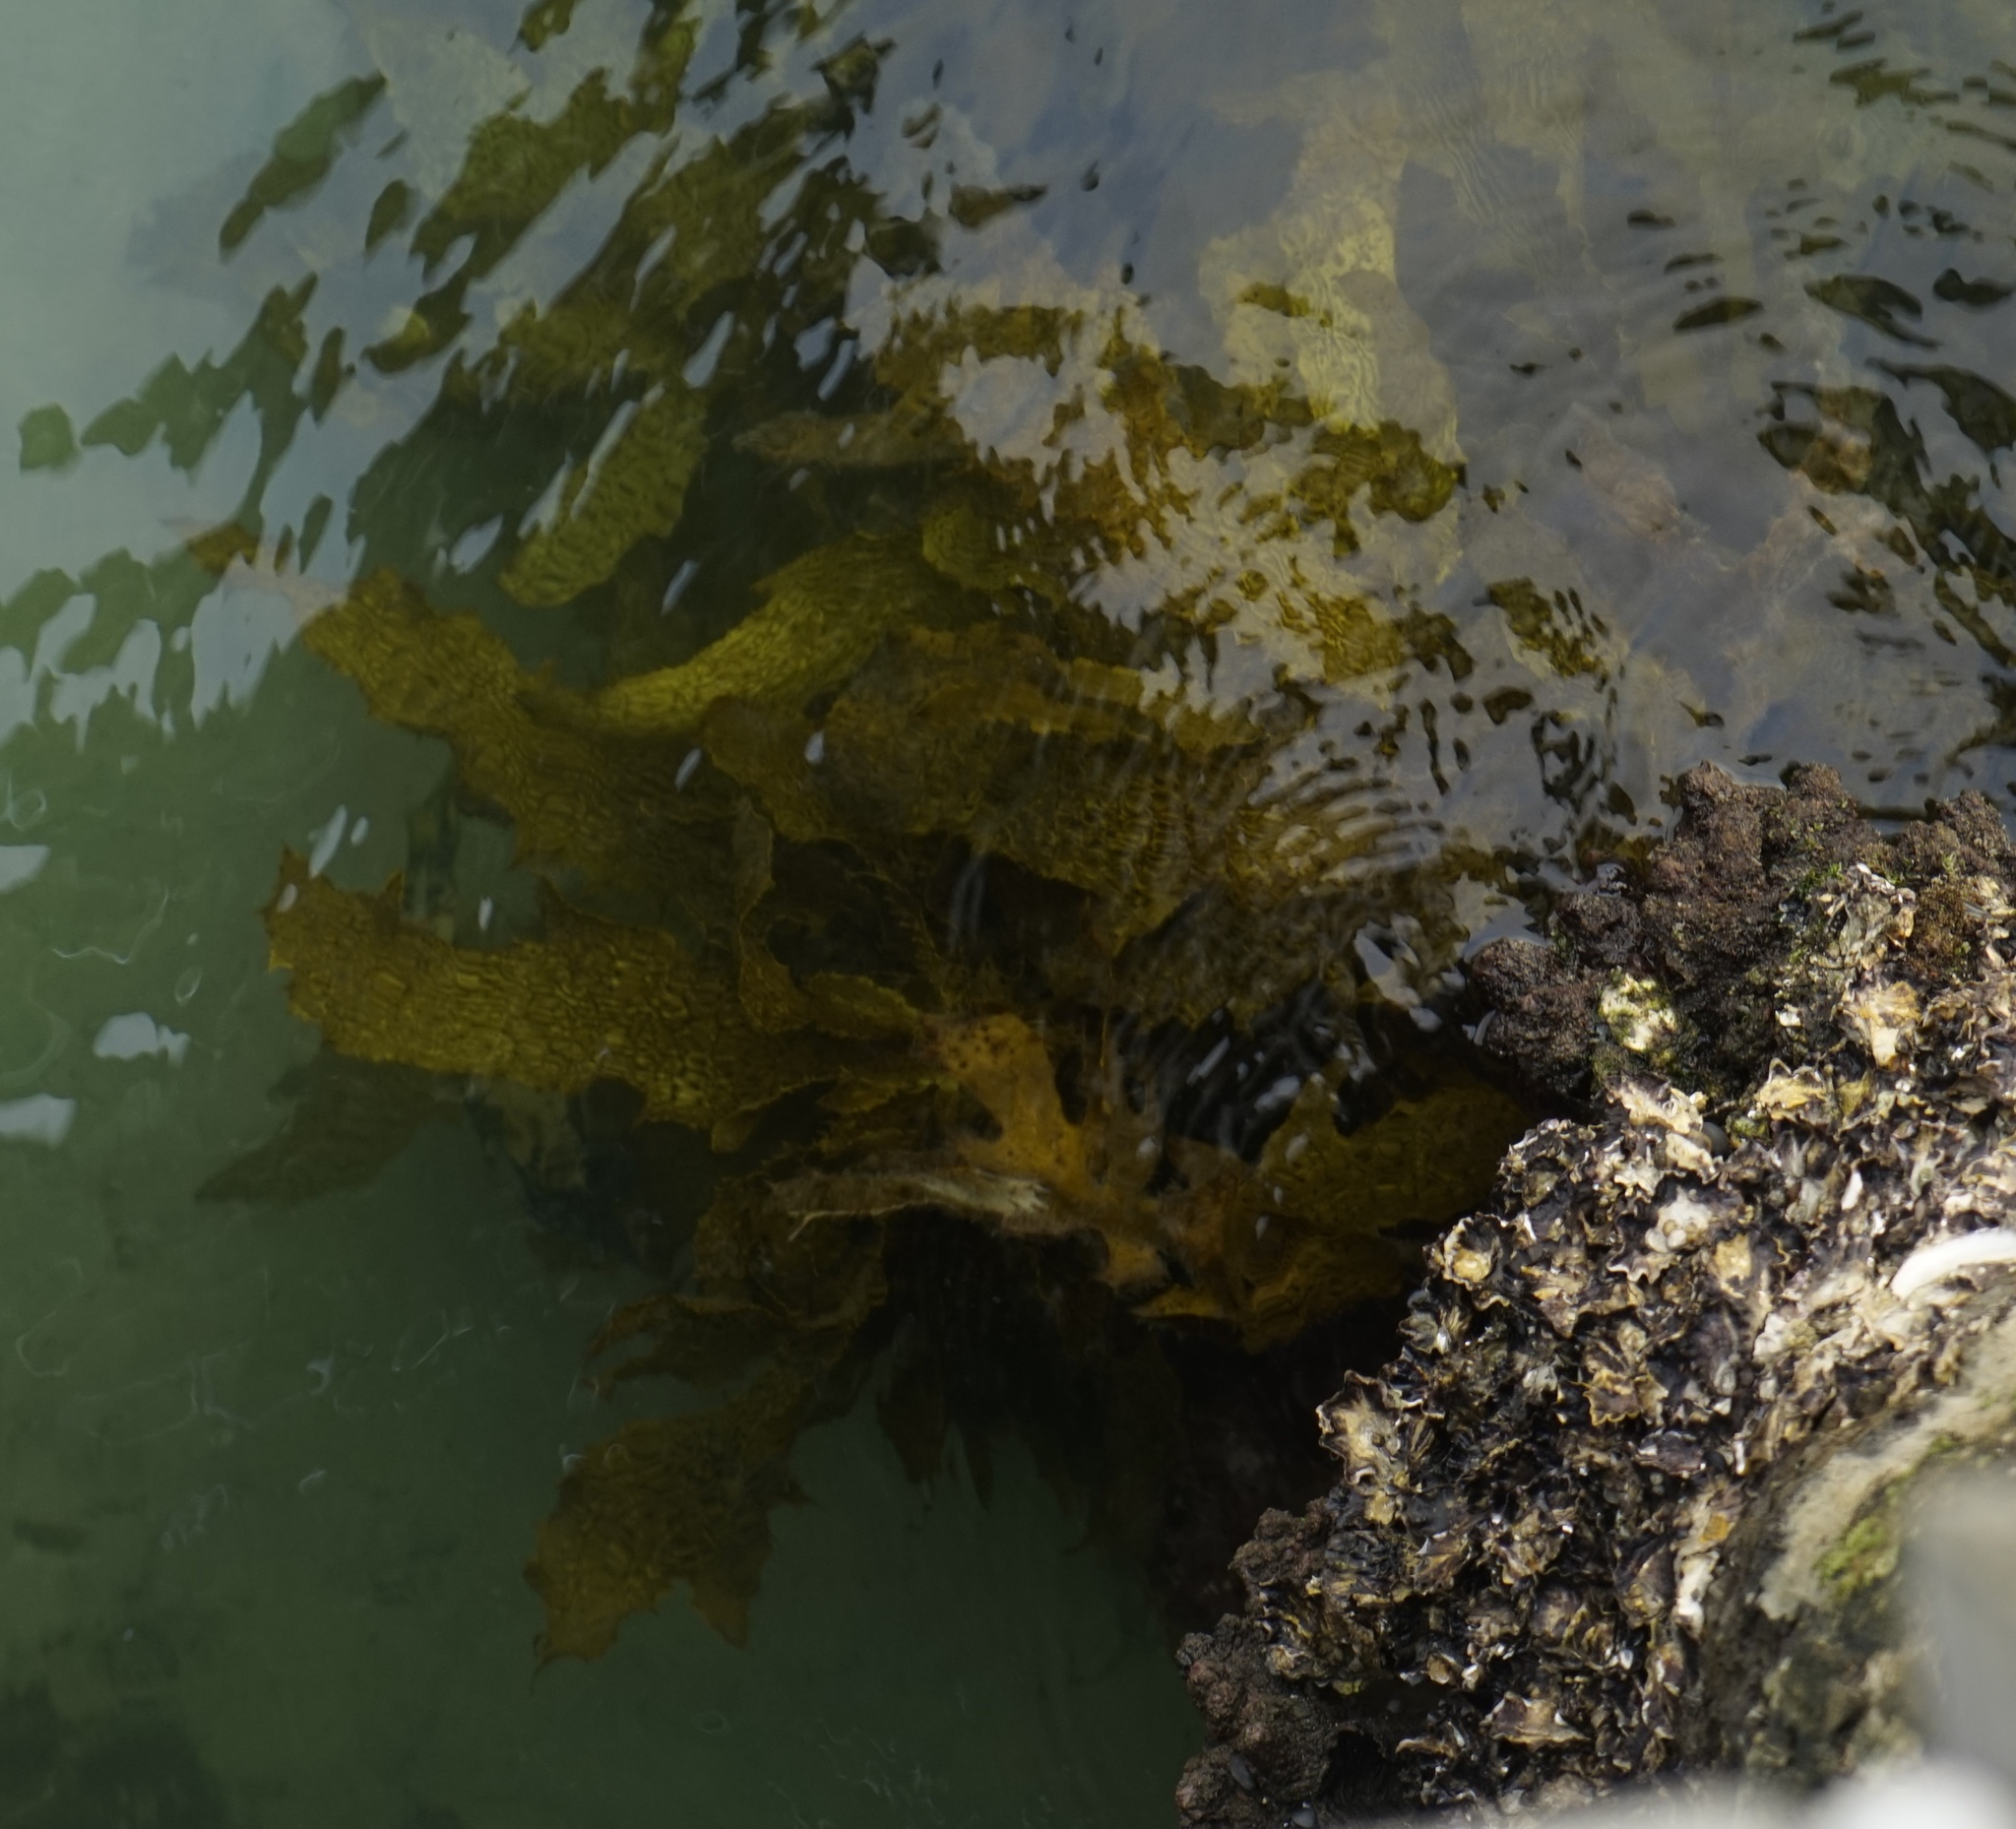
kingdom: Chromista
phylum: Ochrophyta
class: Phaeophyceae
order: Laminariales
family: Lessoniaceae
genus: Ecklonia
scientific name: Ecklonia radiata
